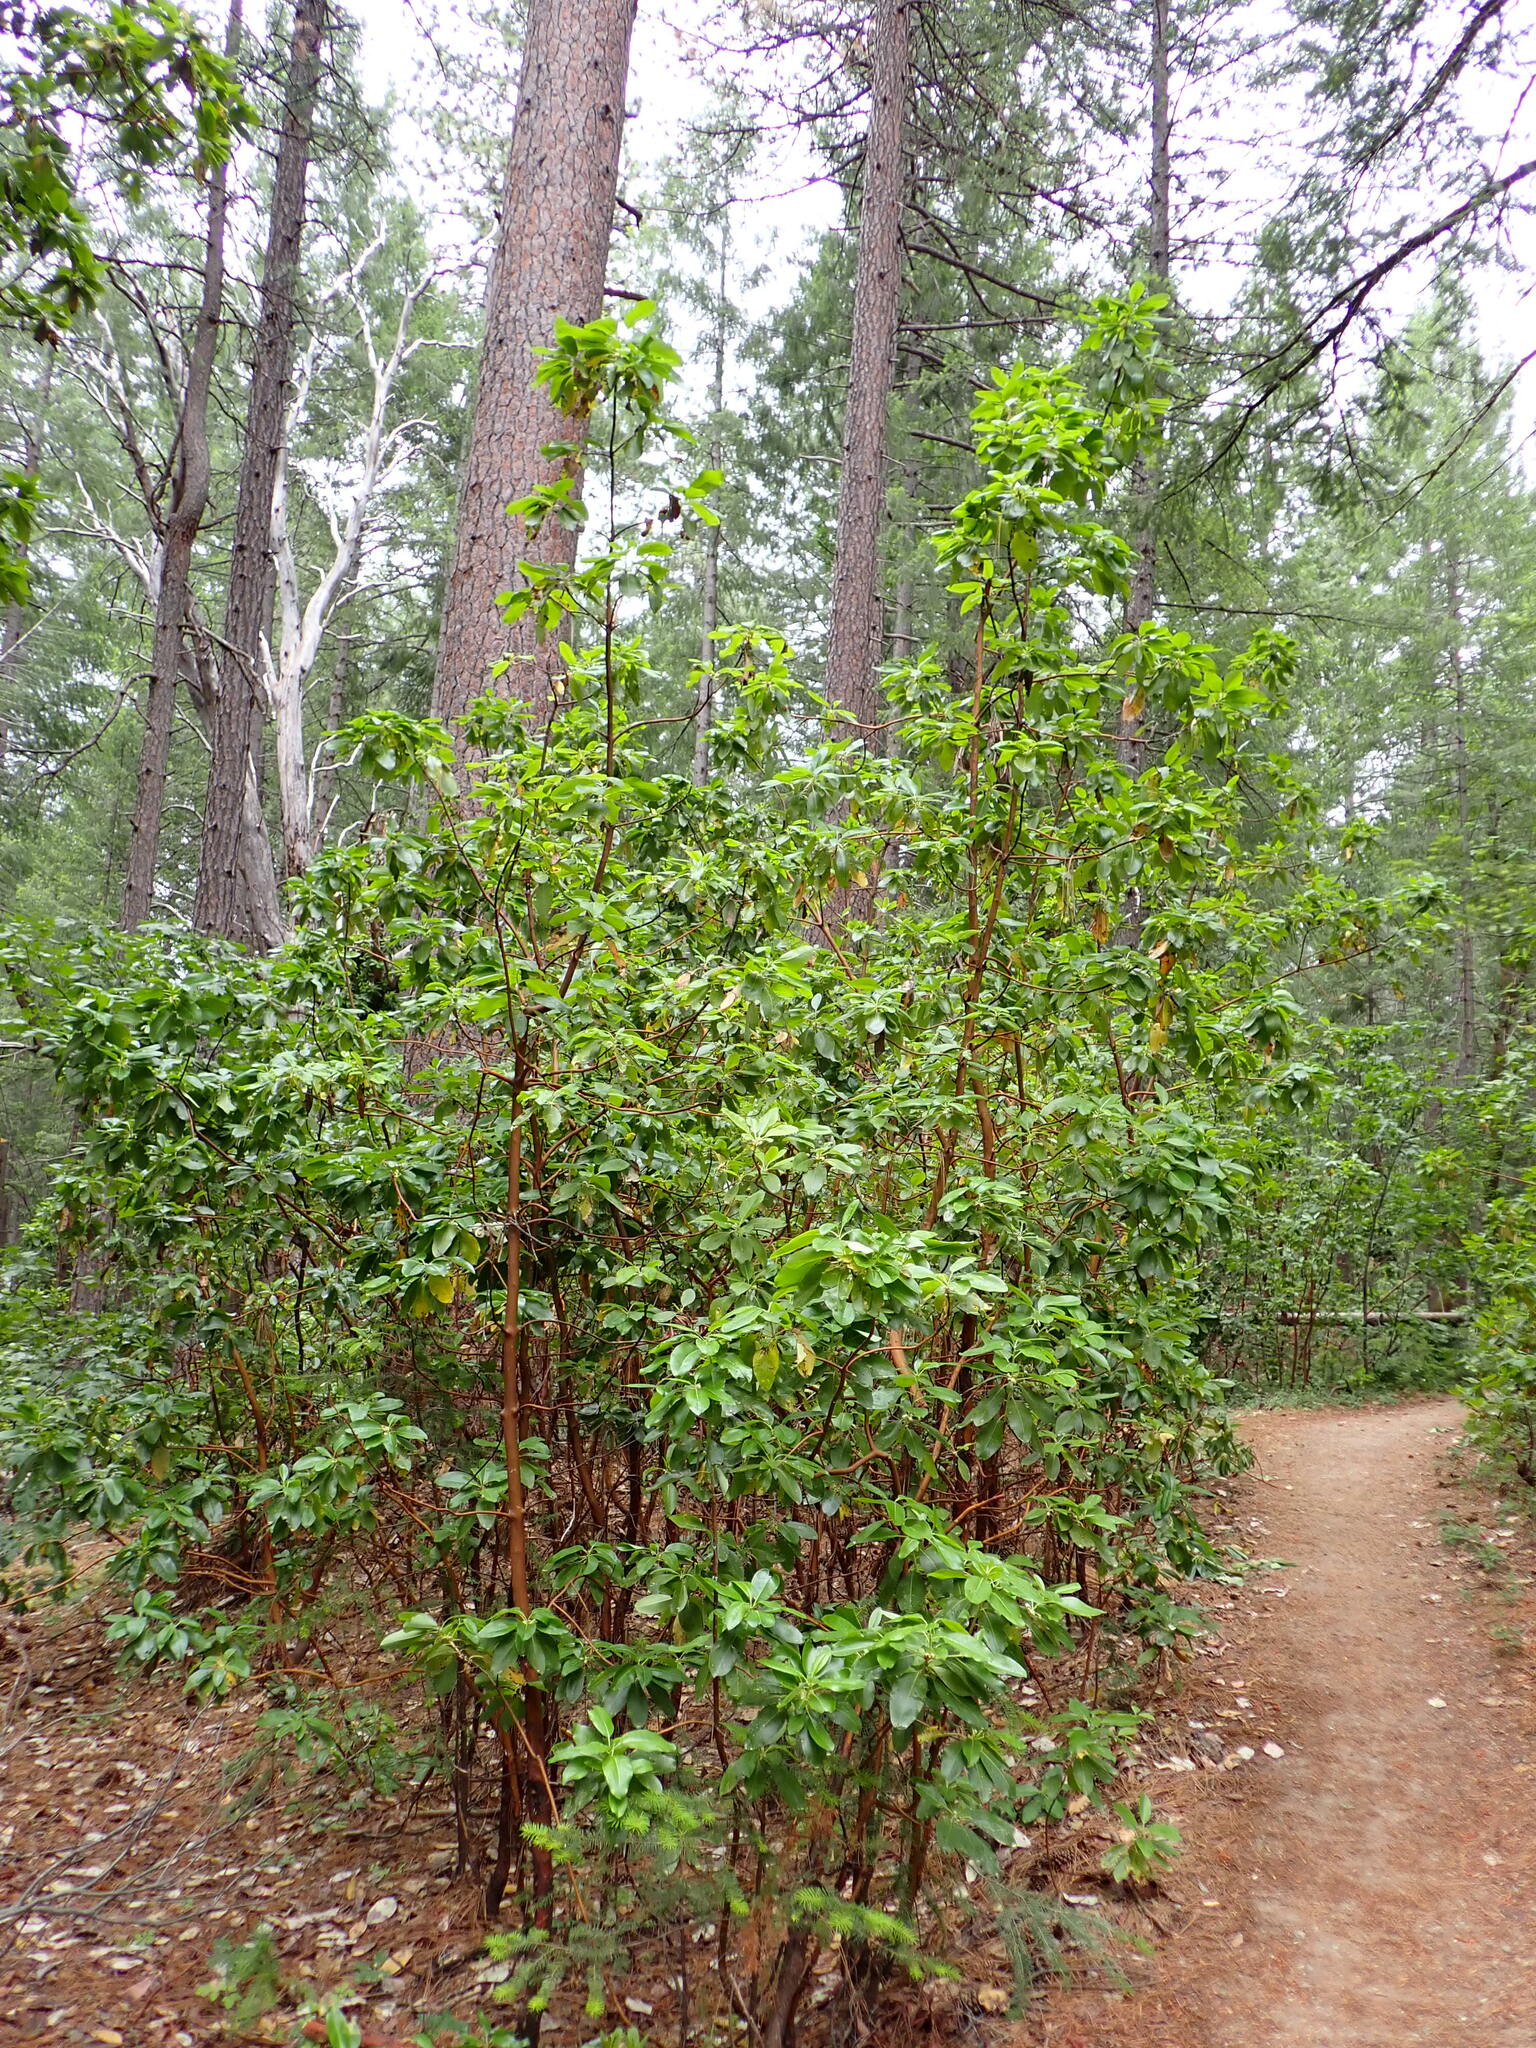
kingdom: Plantae
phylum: Tracheophyta
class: Magnoliopsida
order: Ericales
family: Ericaceae
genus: Arbutus
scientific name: Arbutus menziesii
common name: Pacific madrone
